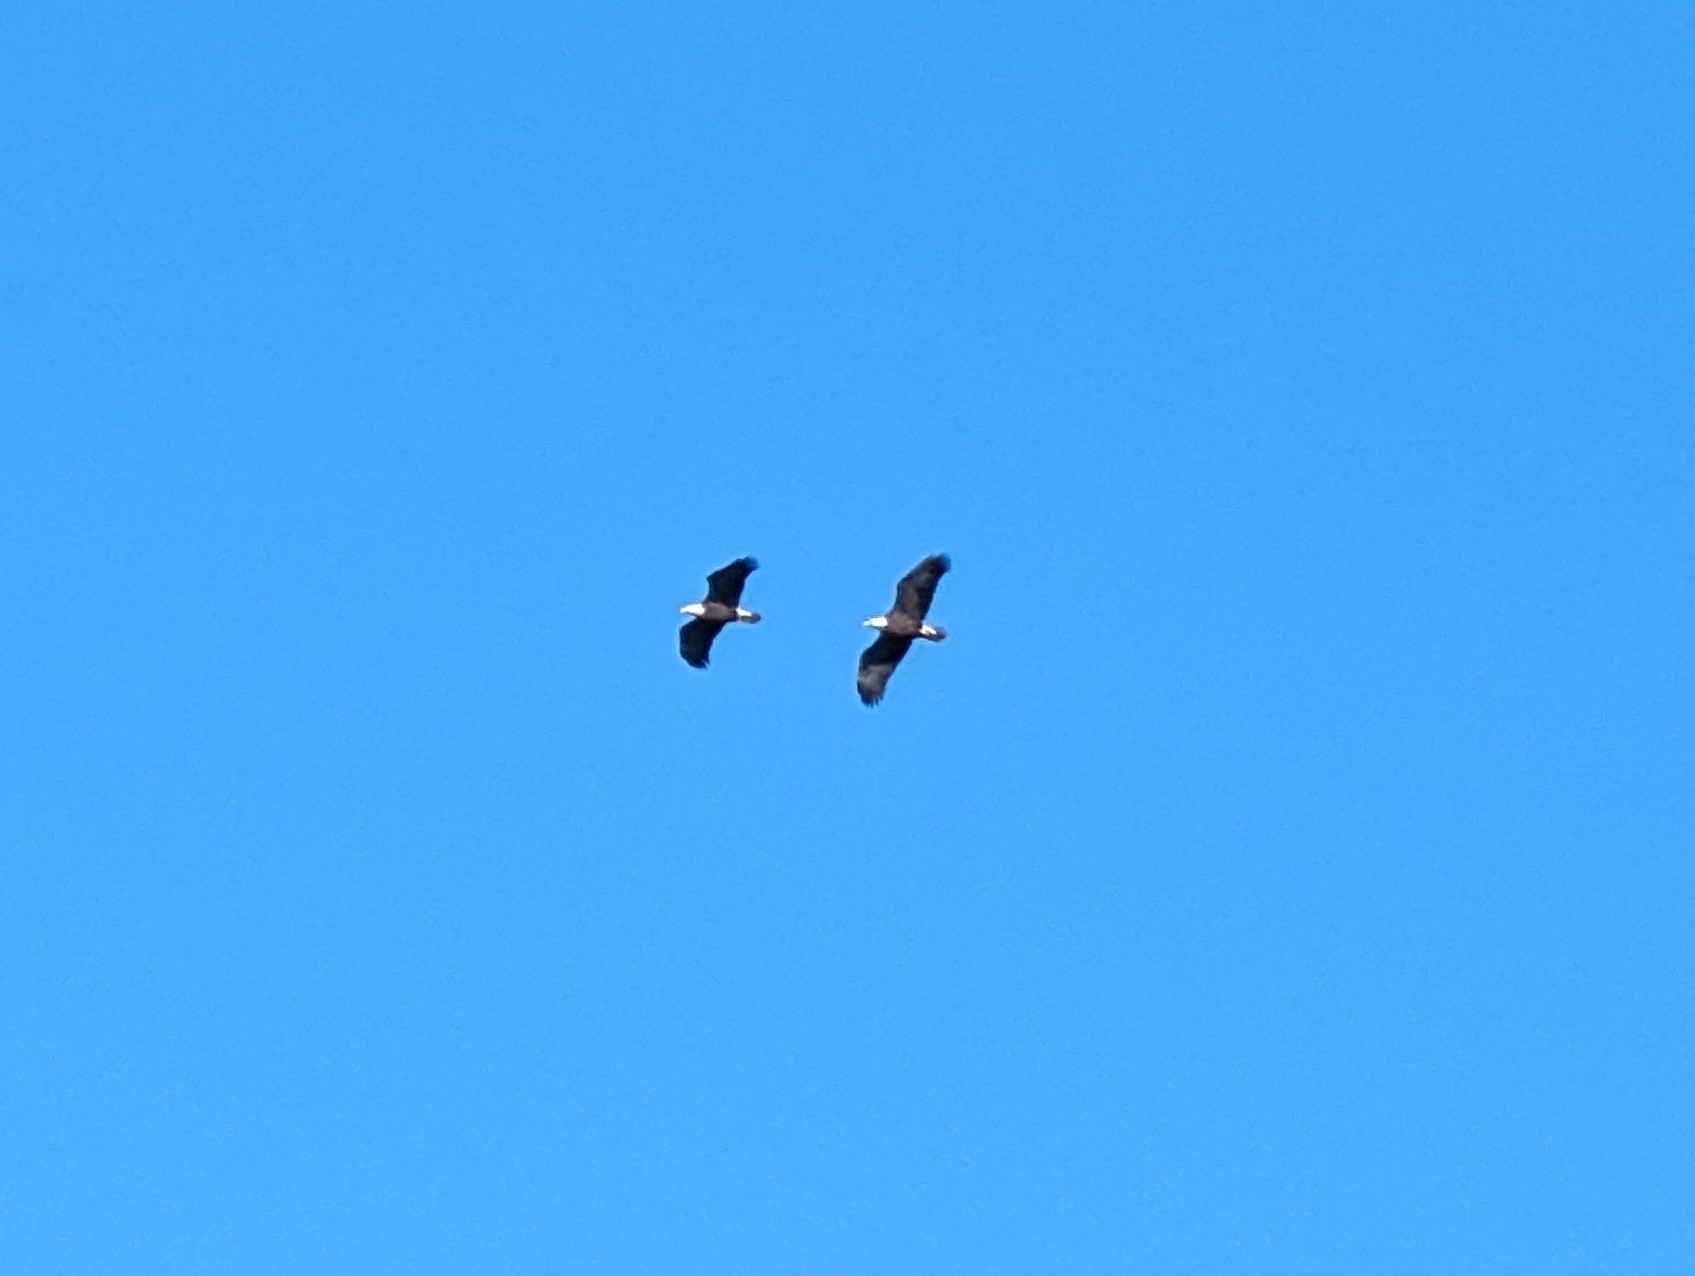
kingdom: Animalia
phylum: Chordata
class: Aves
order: Accipitriformes
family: Accipitridae
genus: Haliaeetus
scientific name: Haliaeetus leucocephalus
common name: Bald eagle
